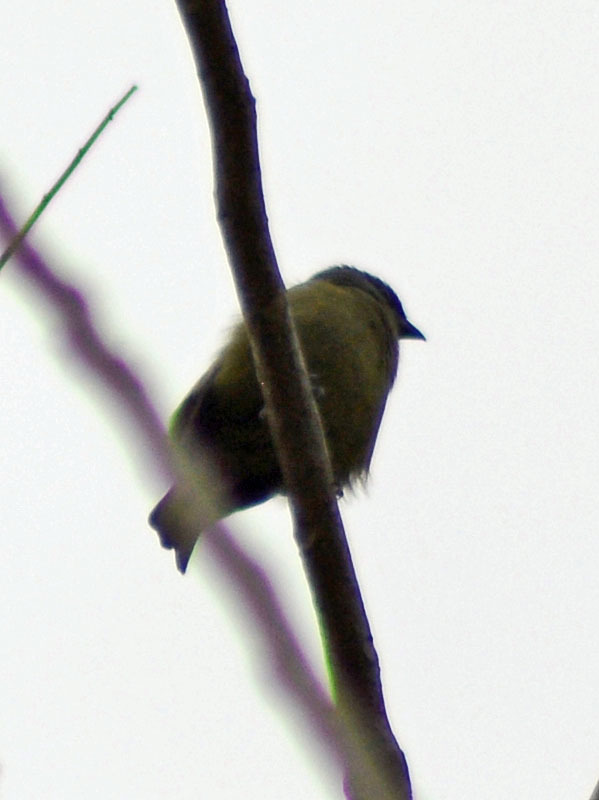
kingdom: Animalia
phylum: Chordata
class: Aves
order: Passeriformes
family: Thraupidae
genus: Thraupis
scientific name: Thraupis abbas
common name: Yellow-winged tanager
